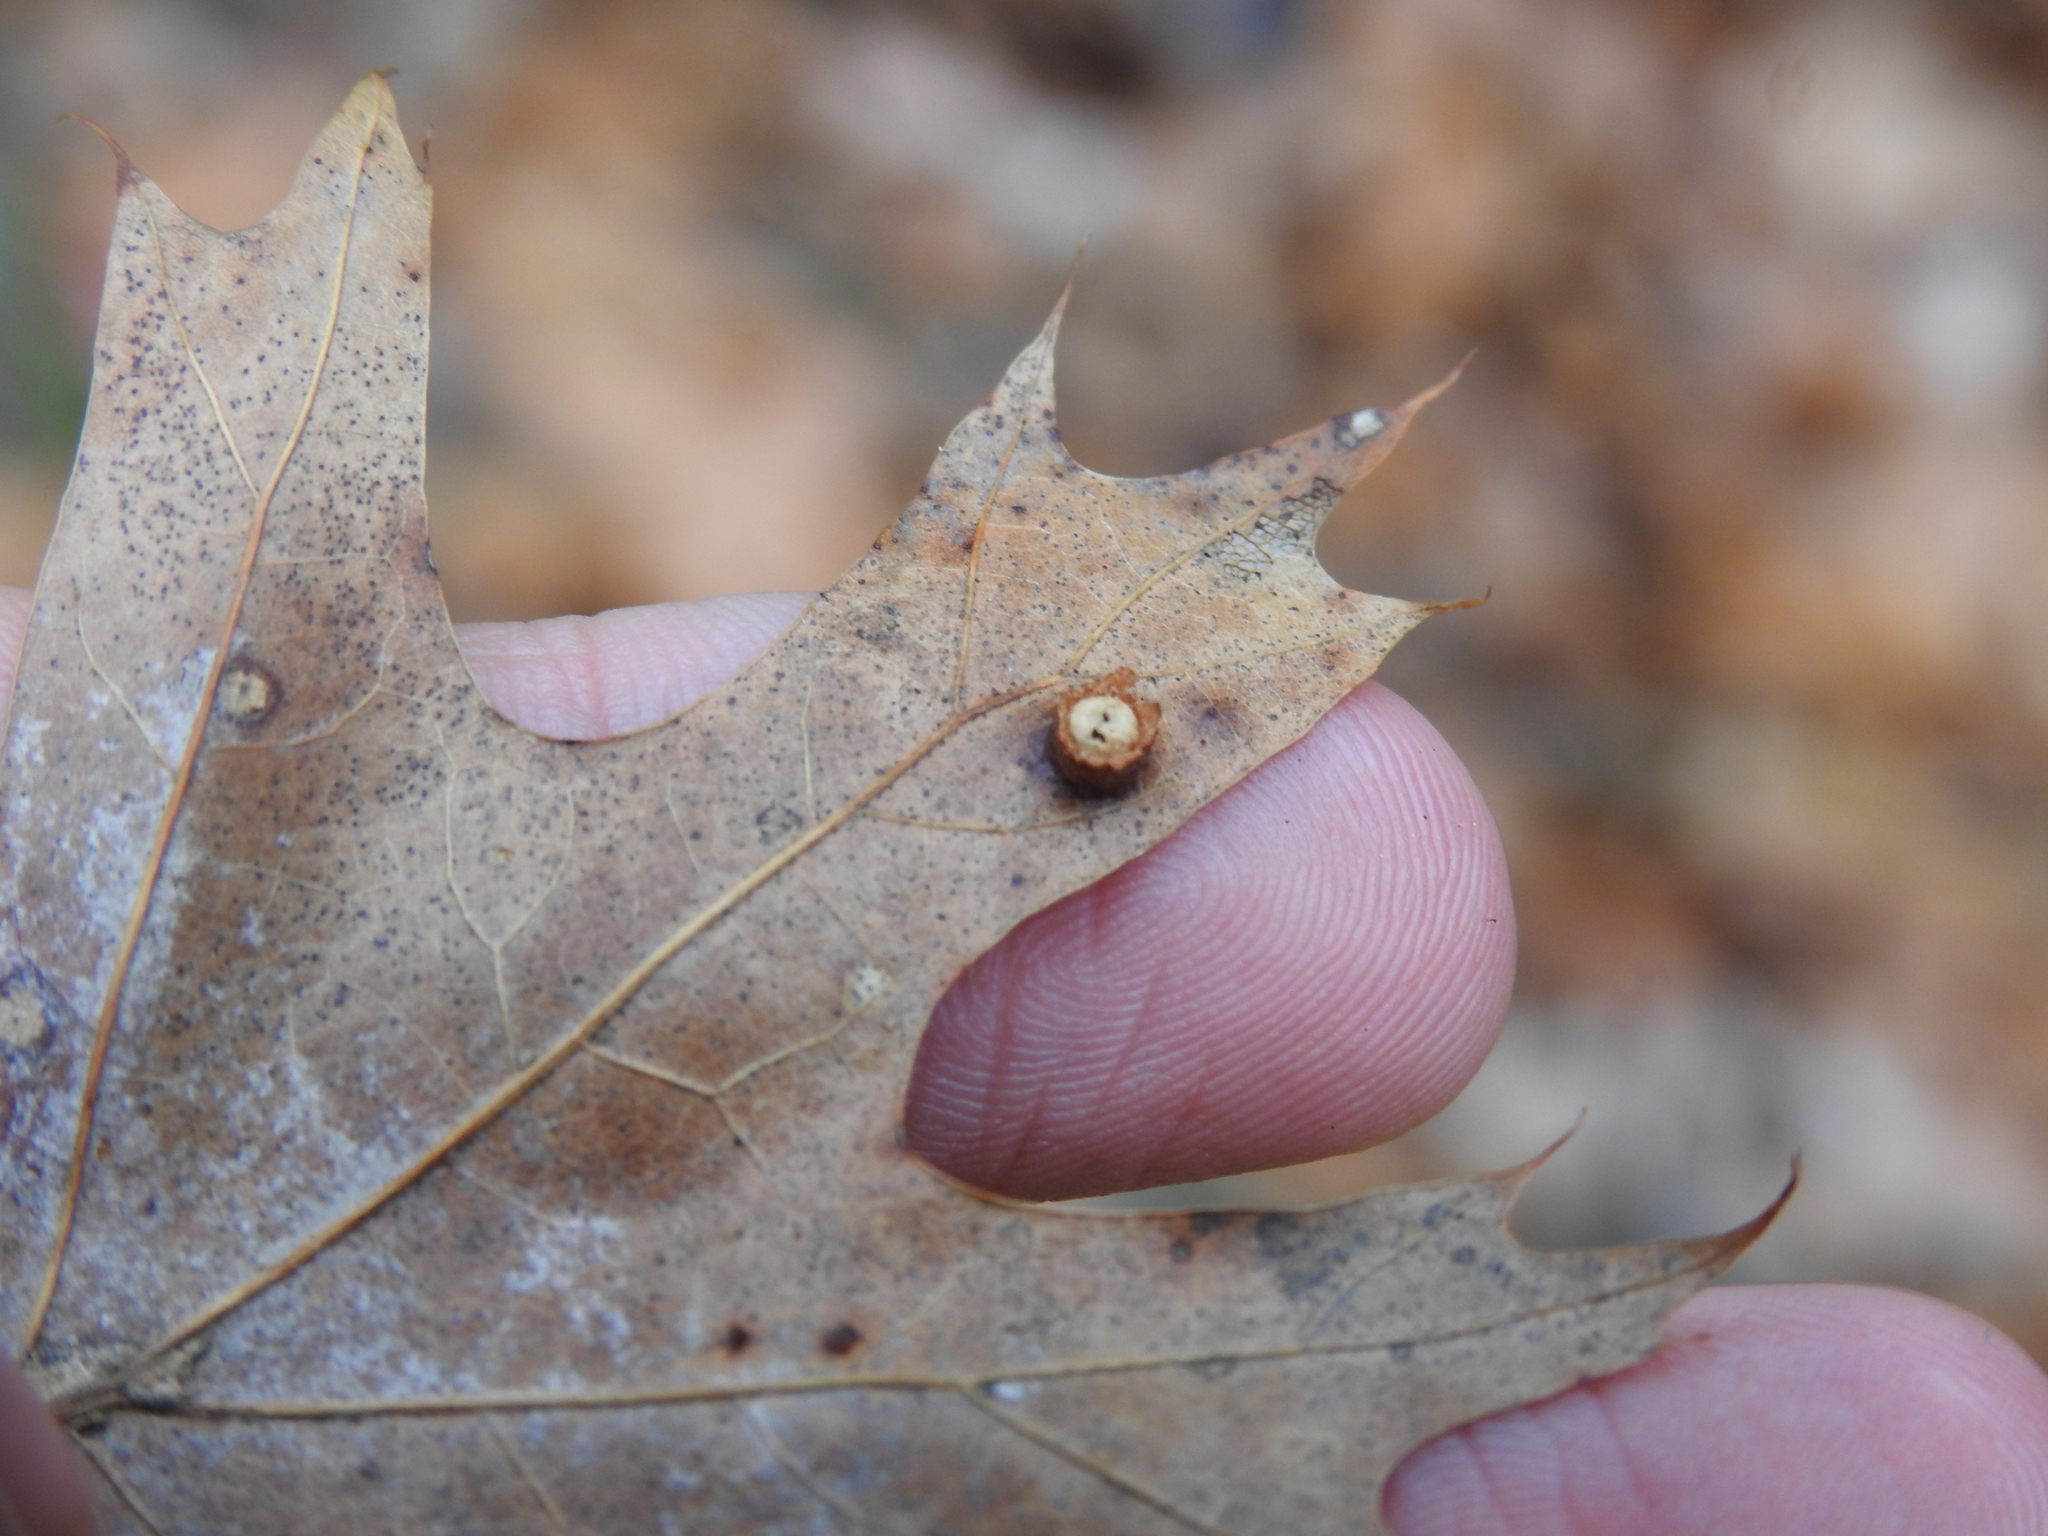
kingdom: Animalia
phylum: Arthropoda
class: Insecta
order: Diptera
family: Cecidomyiidae
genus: Polystepha
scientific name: Polystepha globosa
